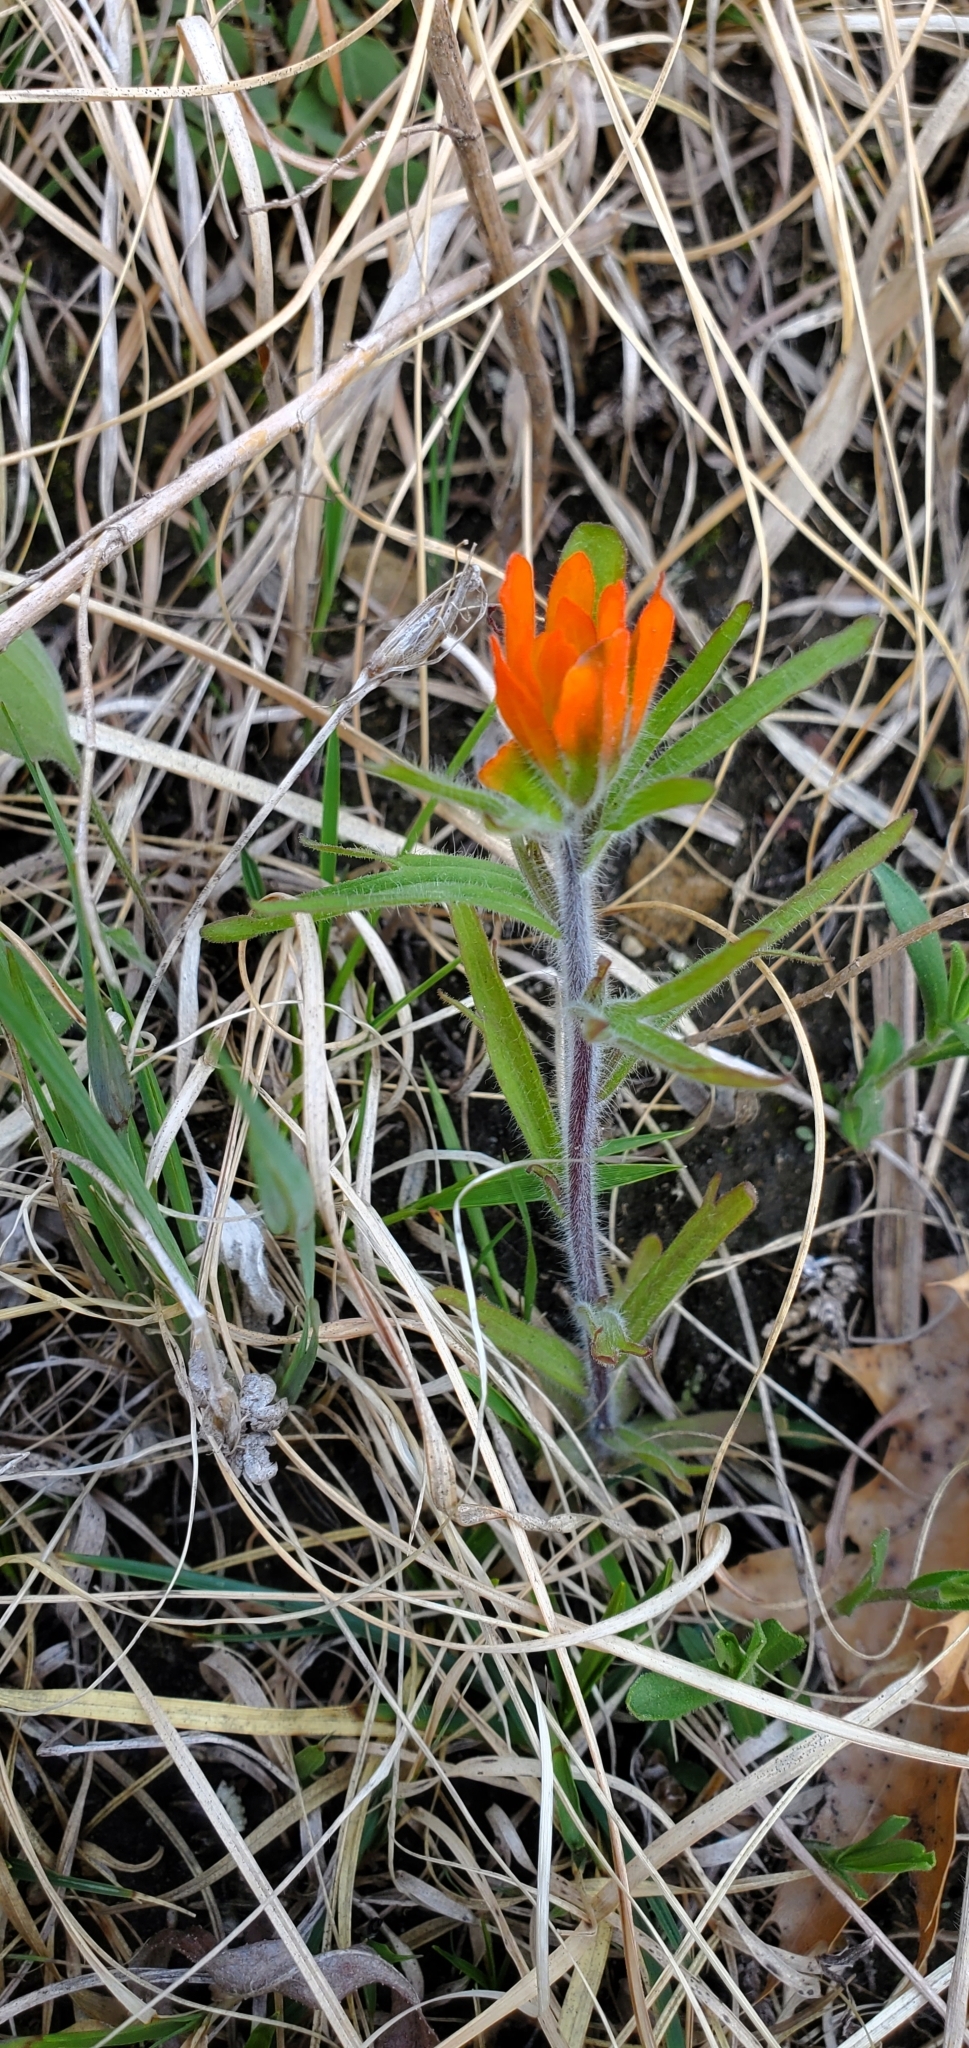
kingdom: Plantae
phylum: Tracheophyta
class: Magnoliopsida
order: Lamiales
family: Orobanchaceae
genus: Castilleja
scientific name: Castilleja coccinea
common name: Scarlet paintbrush
